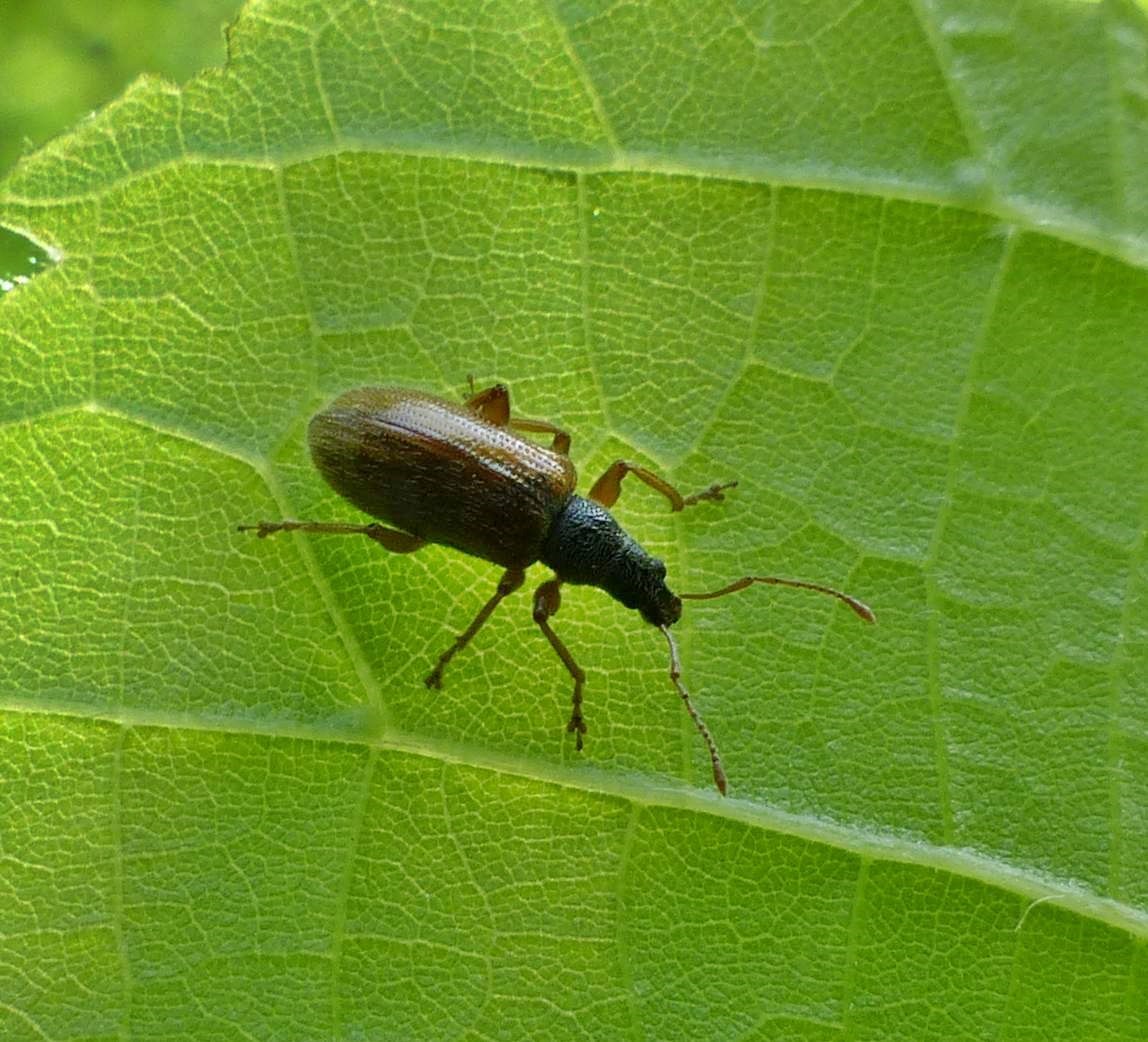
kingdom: Animalia
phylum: Arthropoda
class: Insecta
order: Coleoptera
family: Curculionidae
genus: Phyllobius
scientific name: Phyllobius oblongus
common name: Brown leaf weevil
